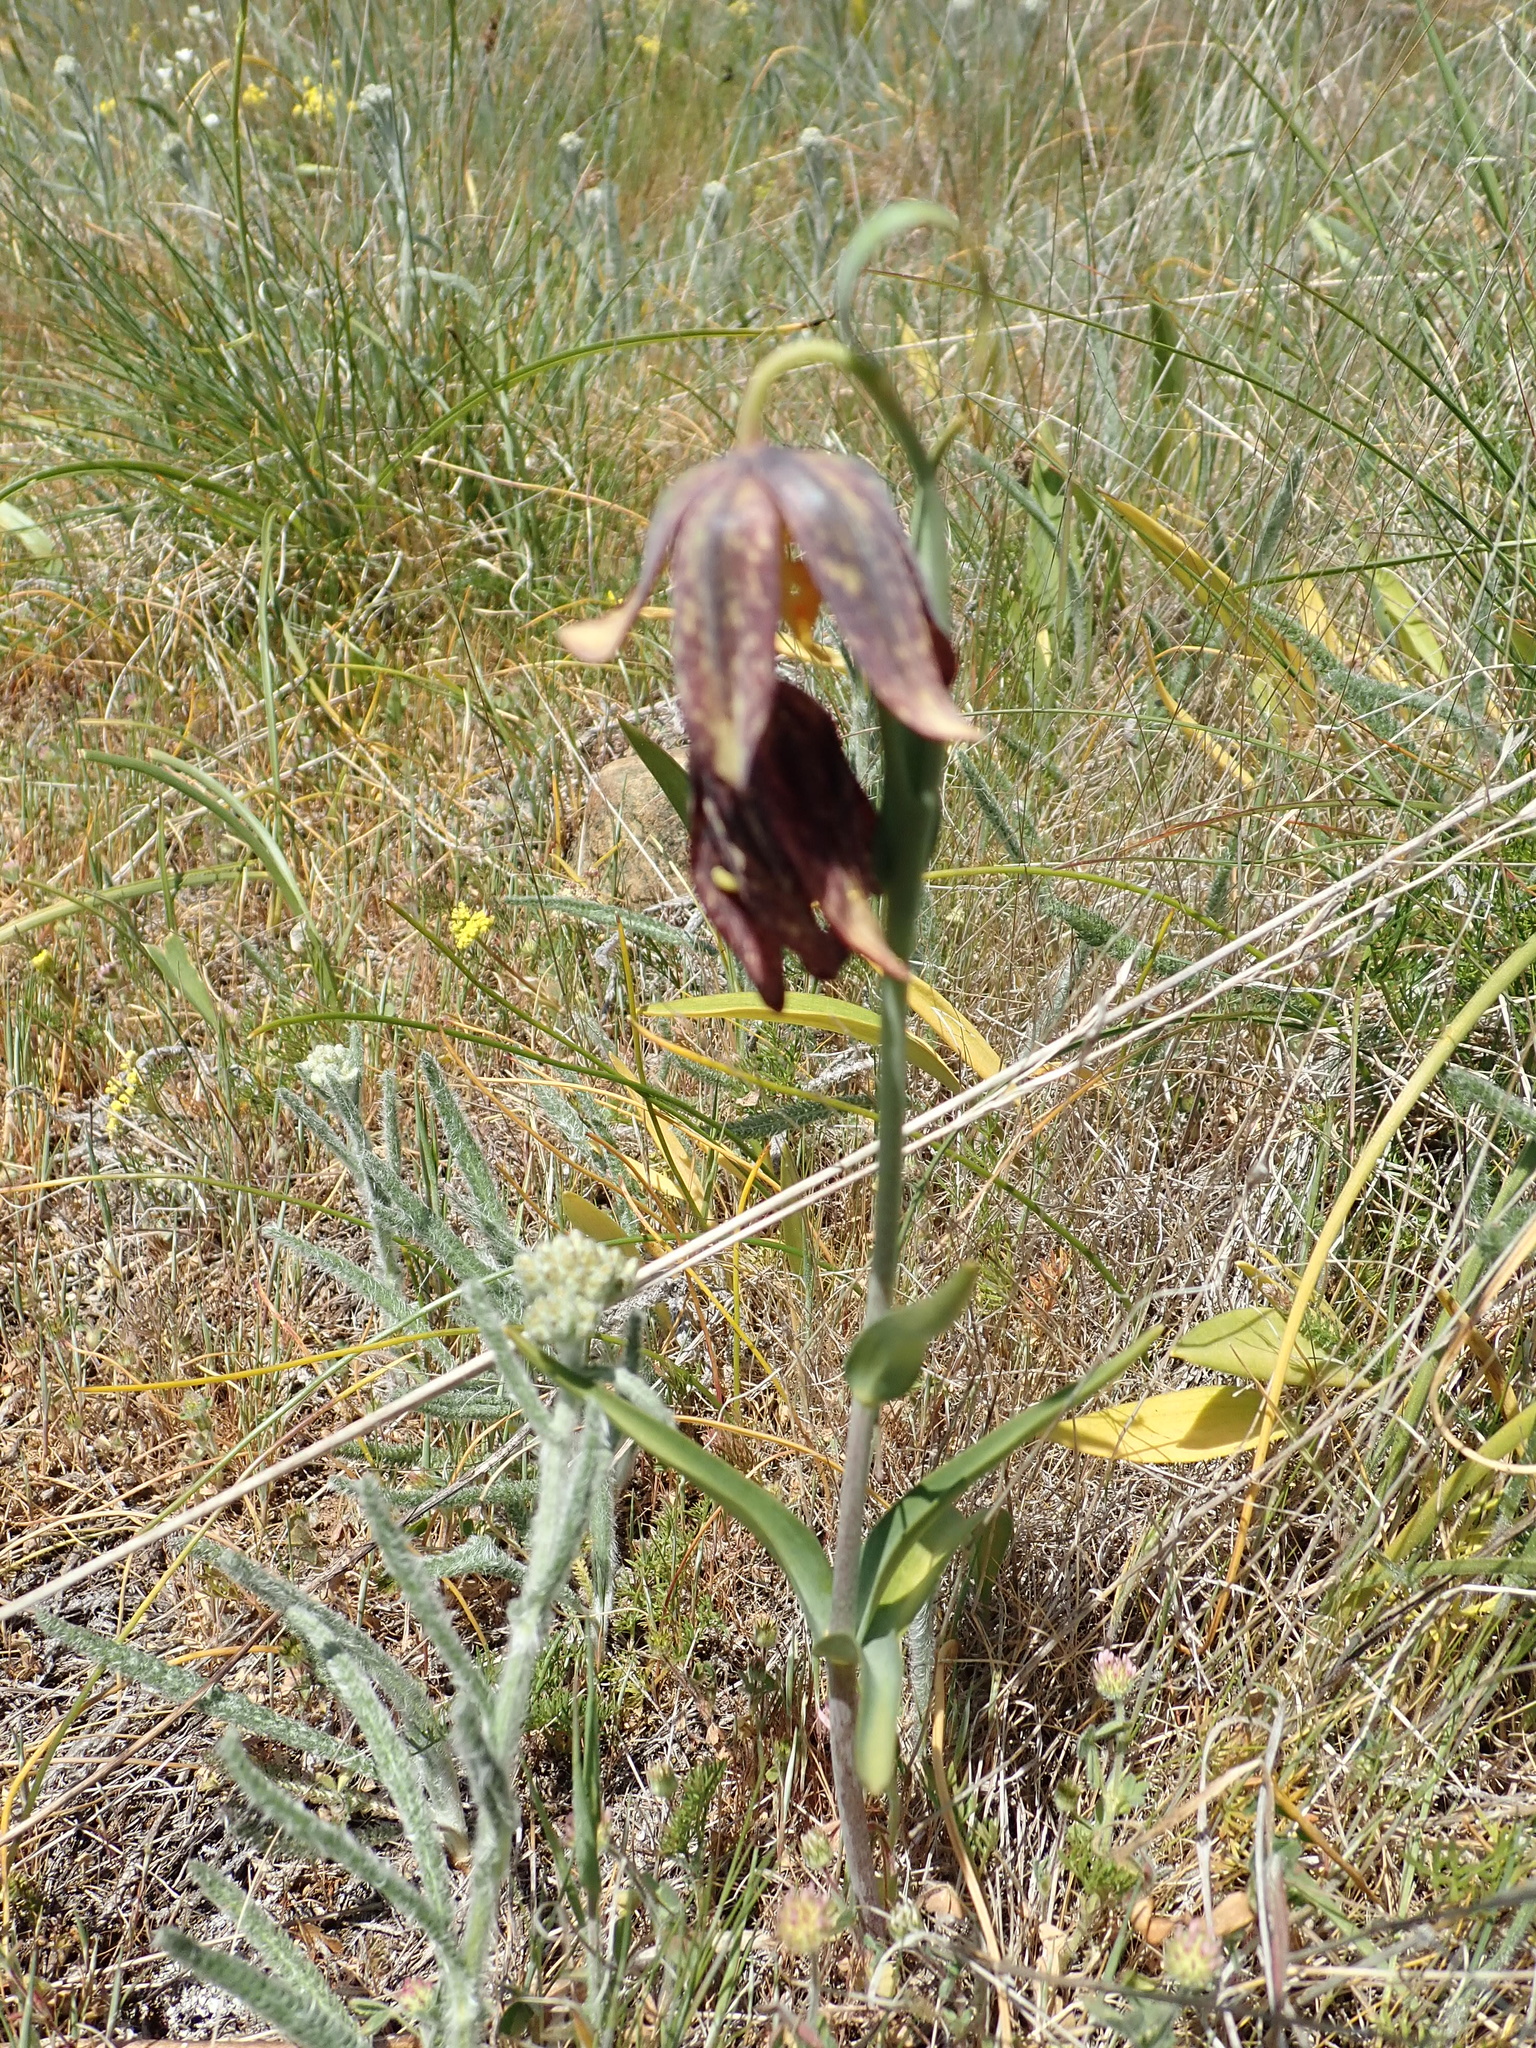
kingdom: Plantae
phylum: Tracheophyta
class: Liliopsida
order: Liliales
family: Liliaceae
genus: Fritillaria
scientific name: Fritillaria affinis
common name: Ojai fritillary
